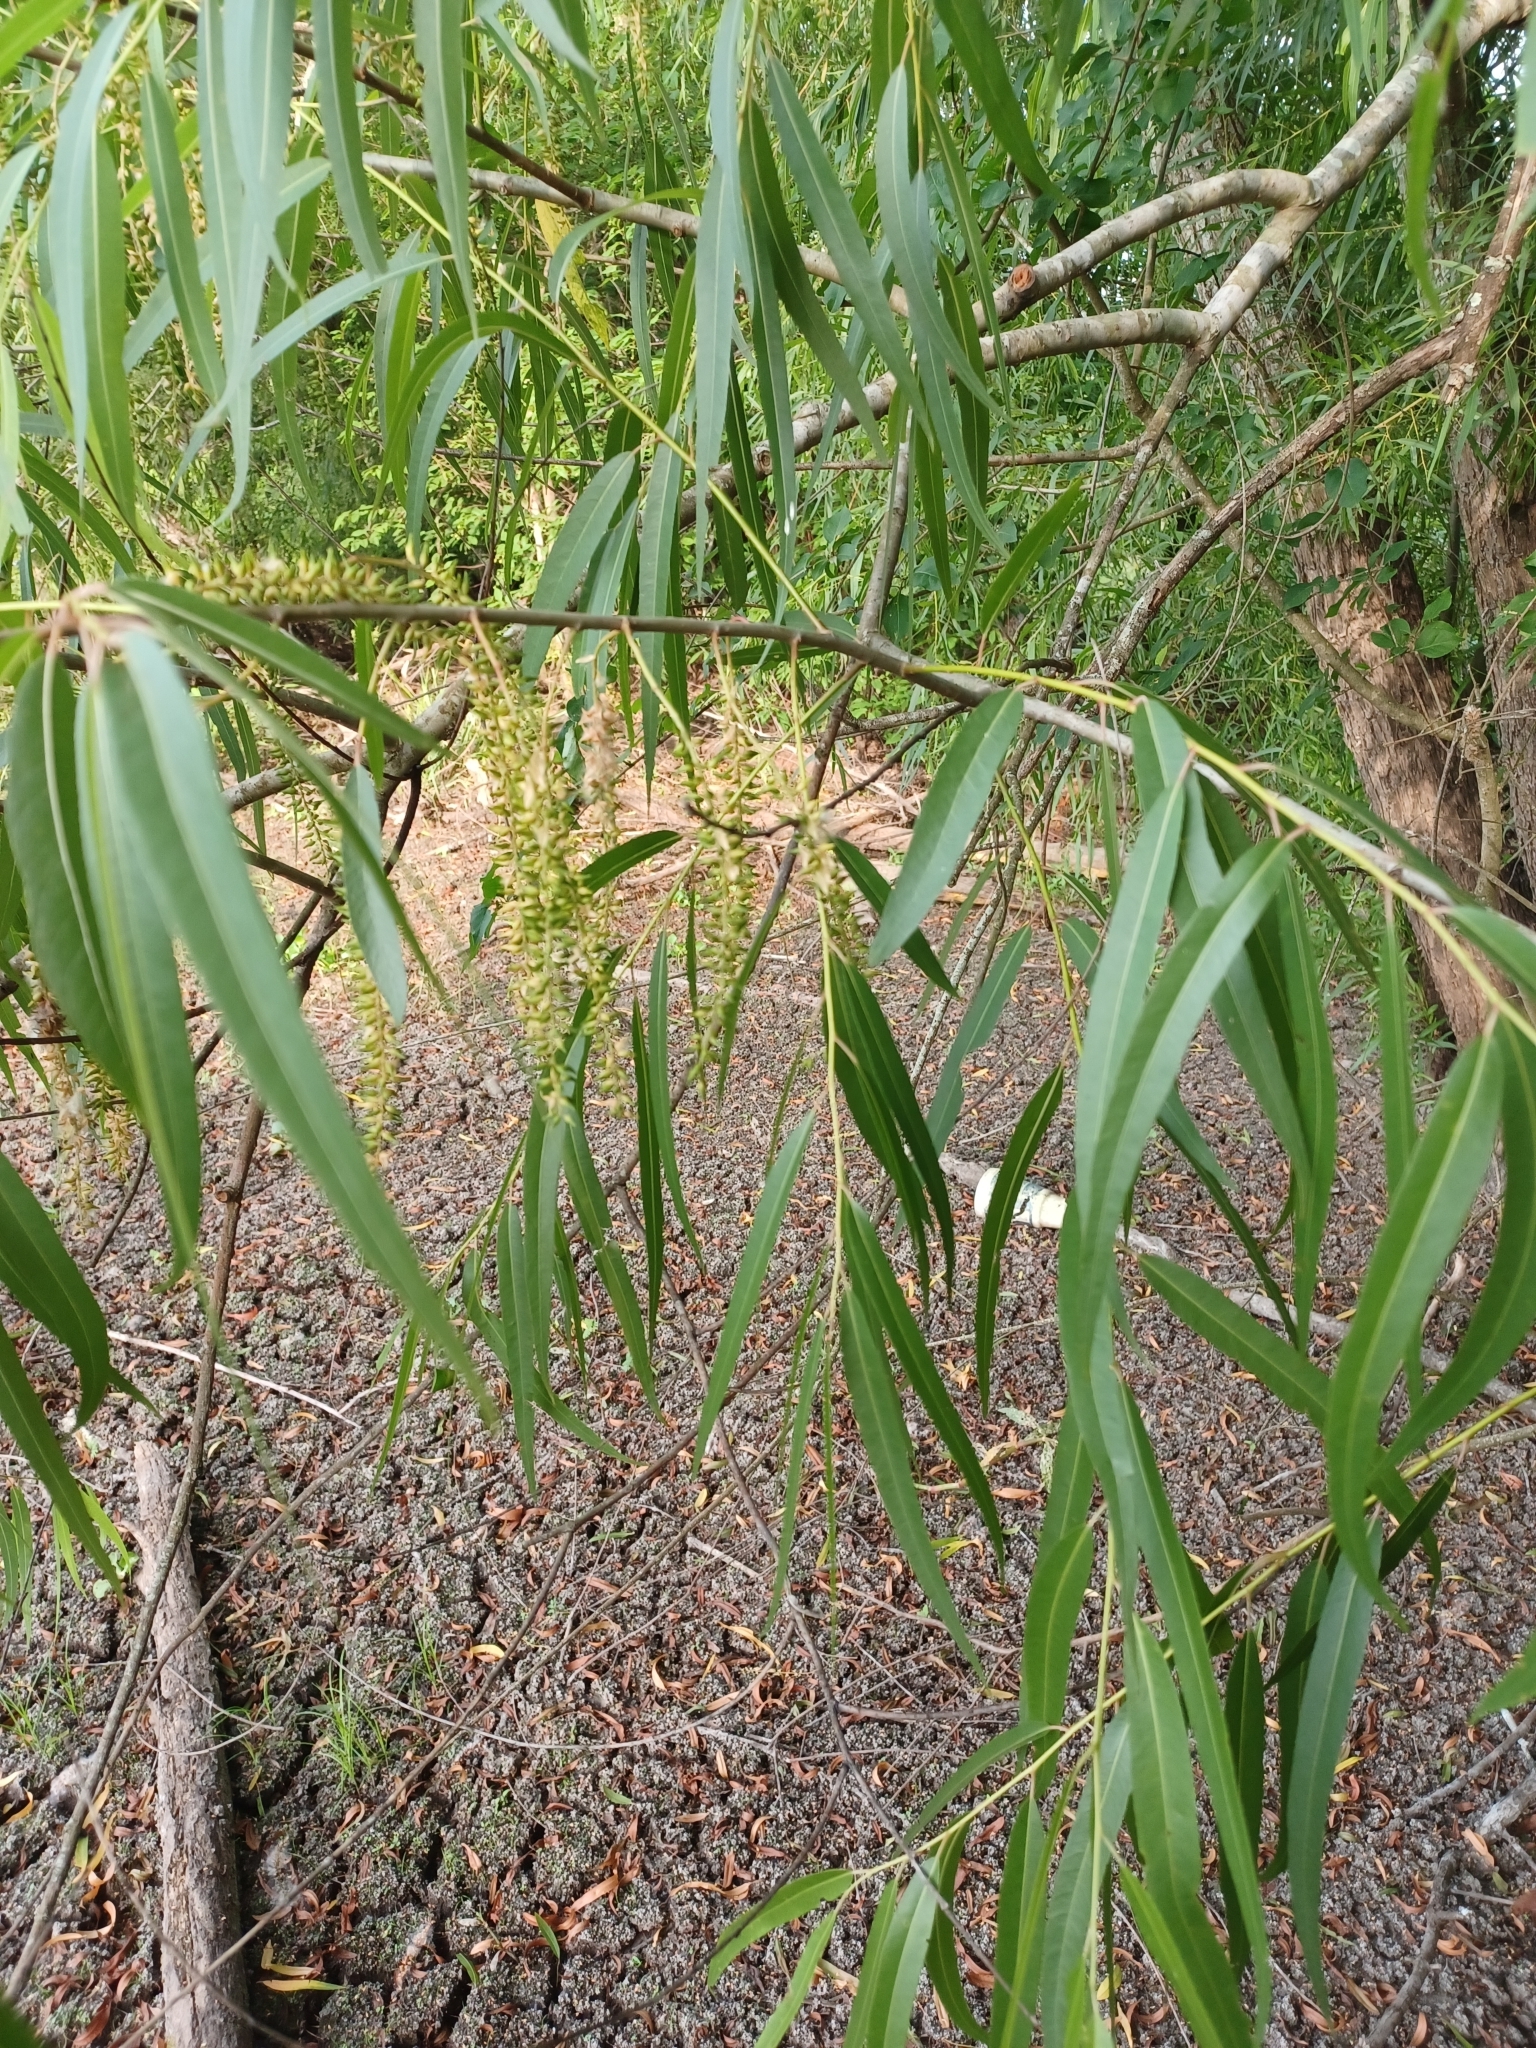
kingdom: Plantae
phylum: Tracheophyta
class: Magnoliopsida
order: Malpighiales
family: Salicaceae
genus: Salix
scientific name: Salix nigra
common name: Black willow
